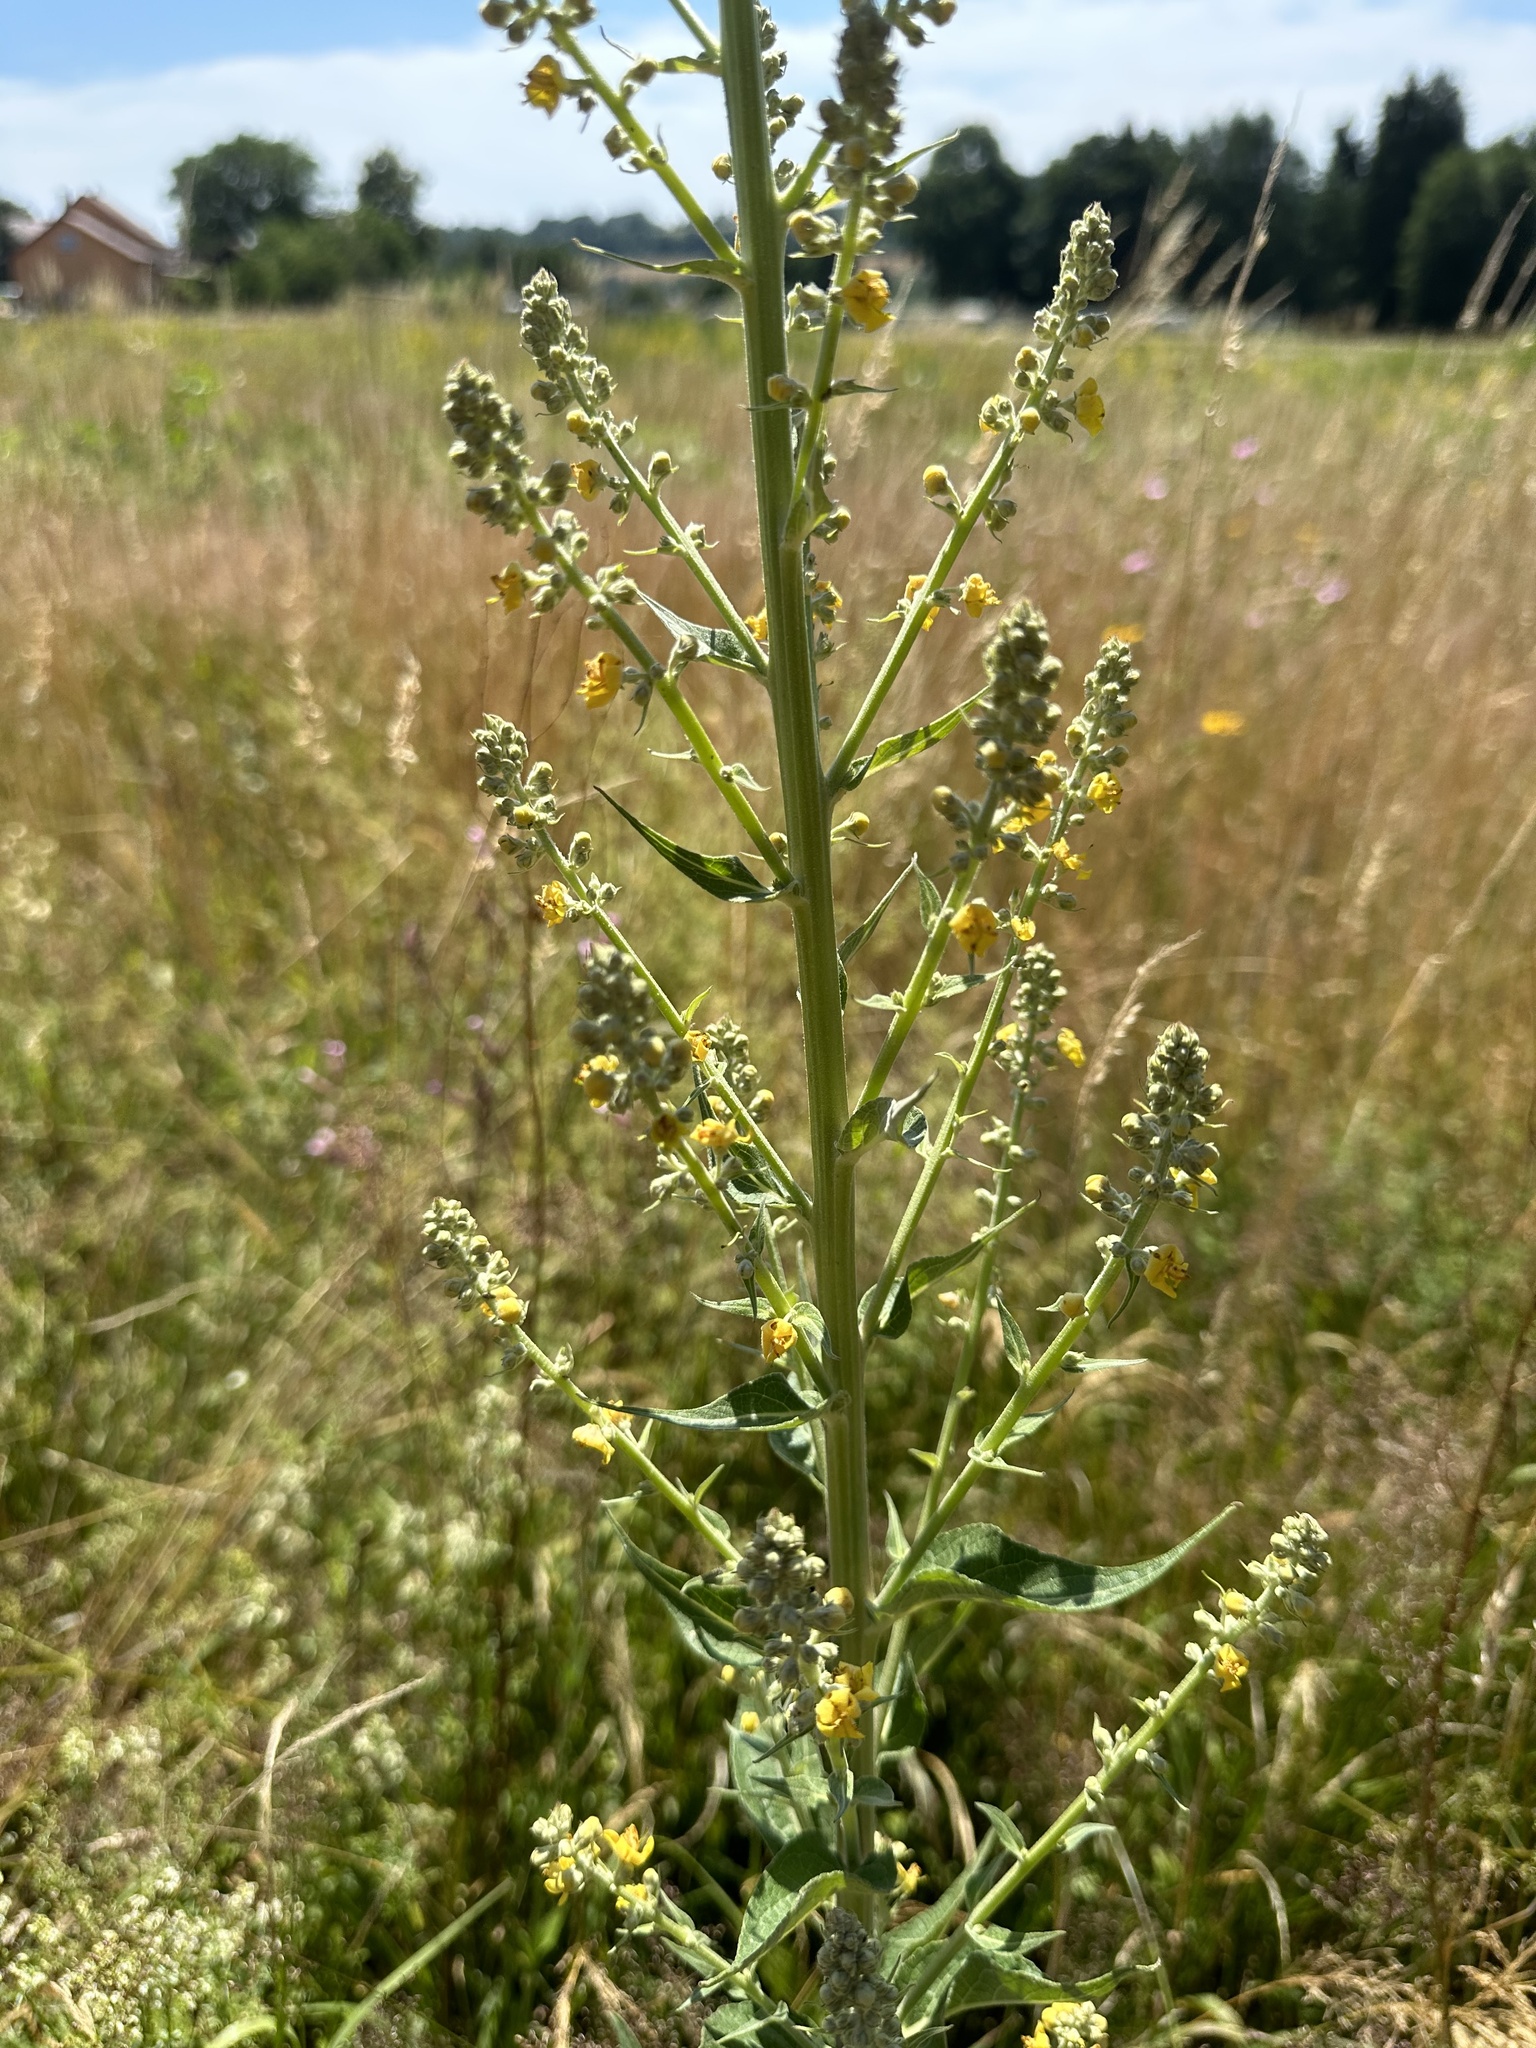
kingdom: Plantae
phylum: Tracheophyta
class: Magnoliopsida
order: Lamiales
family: Scrophulariaceae
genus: Verbascum
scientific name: Verbascum lychnitis
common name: White mullein
